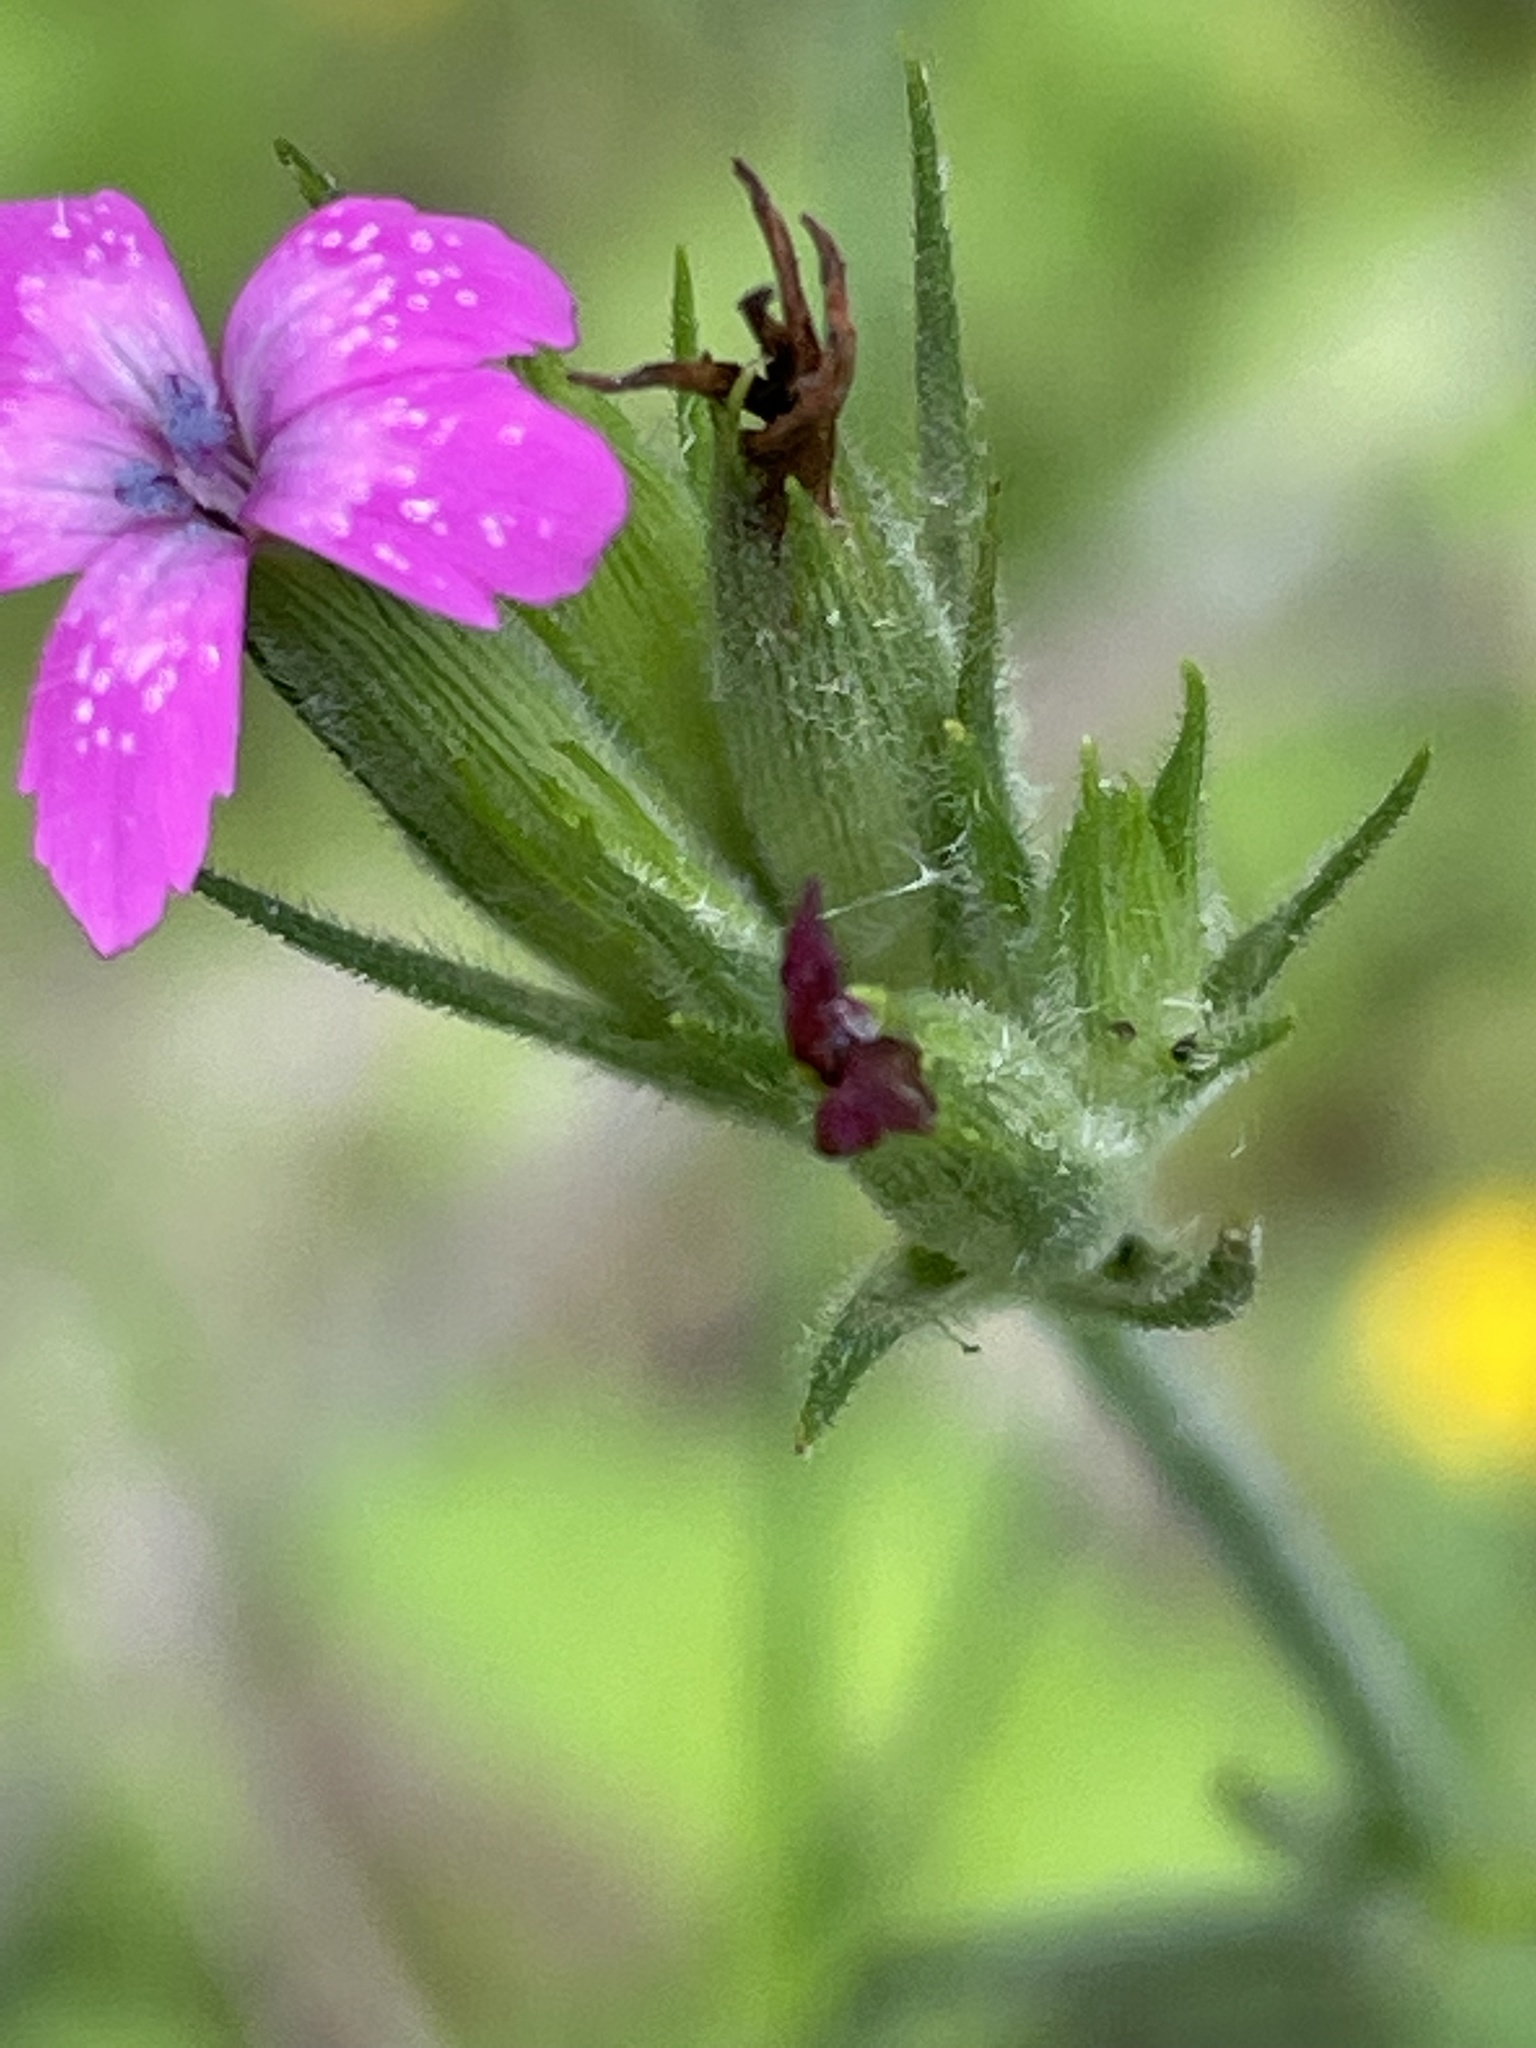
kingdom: Plantae
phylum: Tracheophyta
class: Magnoliopsida
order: Caryophyllales
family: Caryophyllaceae
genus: Dianthus
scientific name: Dianthus armeria
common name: Deptford pink
